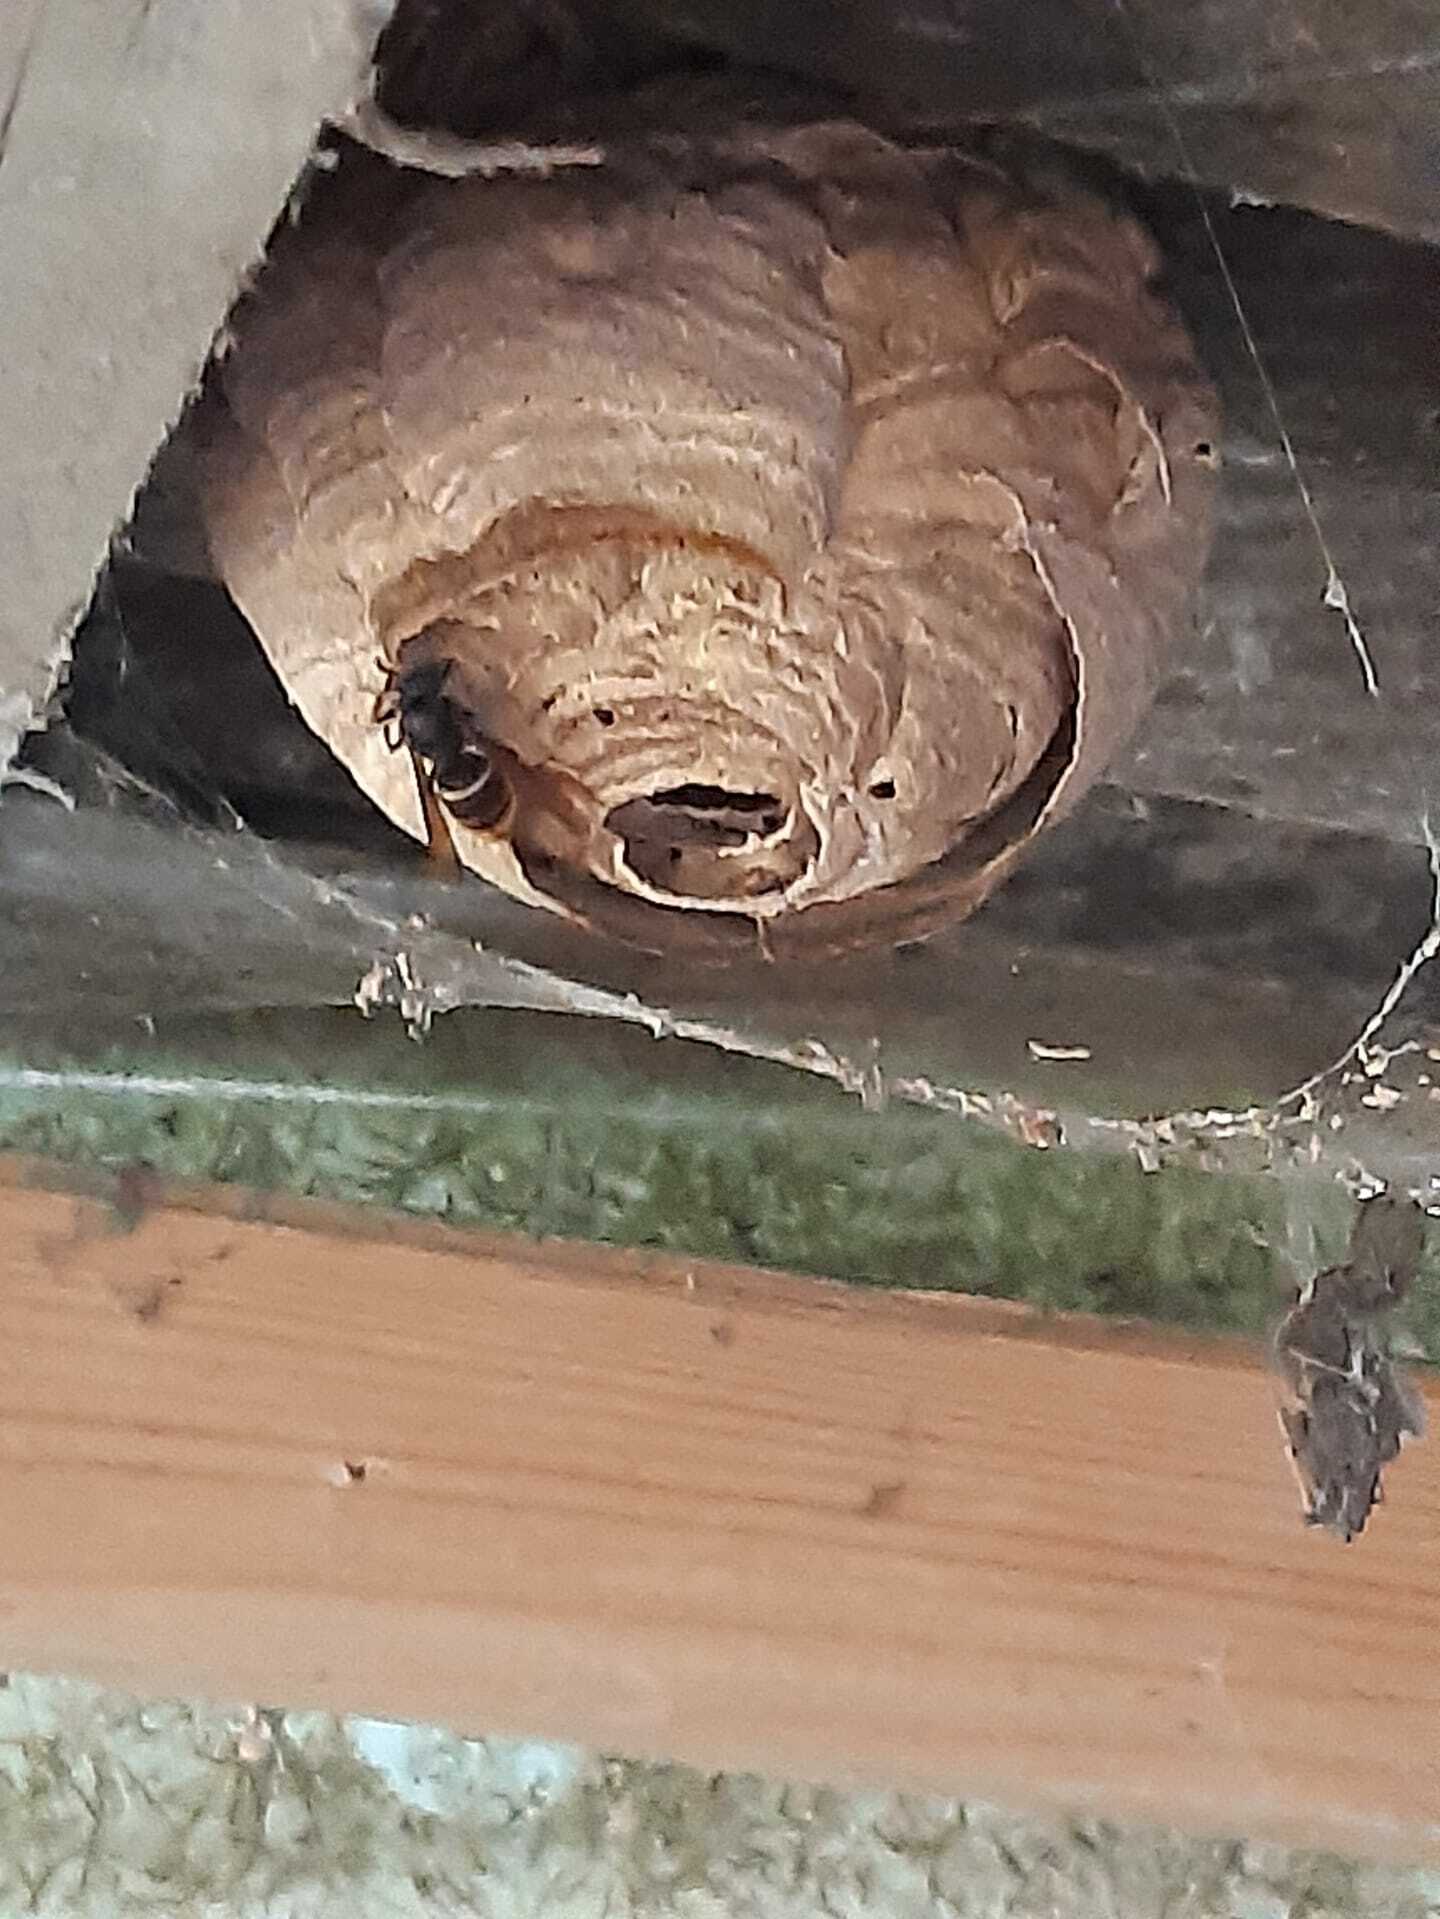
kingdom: Animalia
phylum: Arthropoda
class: Insecta
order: Hymenoptera
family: Vespidae
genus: Vespa
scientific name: Vespa velutina
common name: Asian hornet
